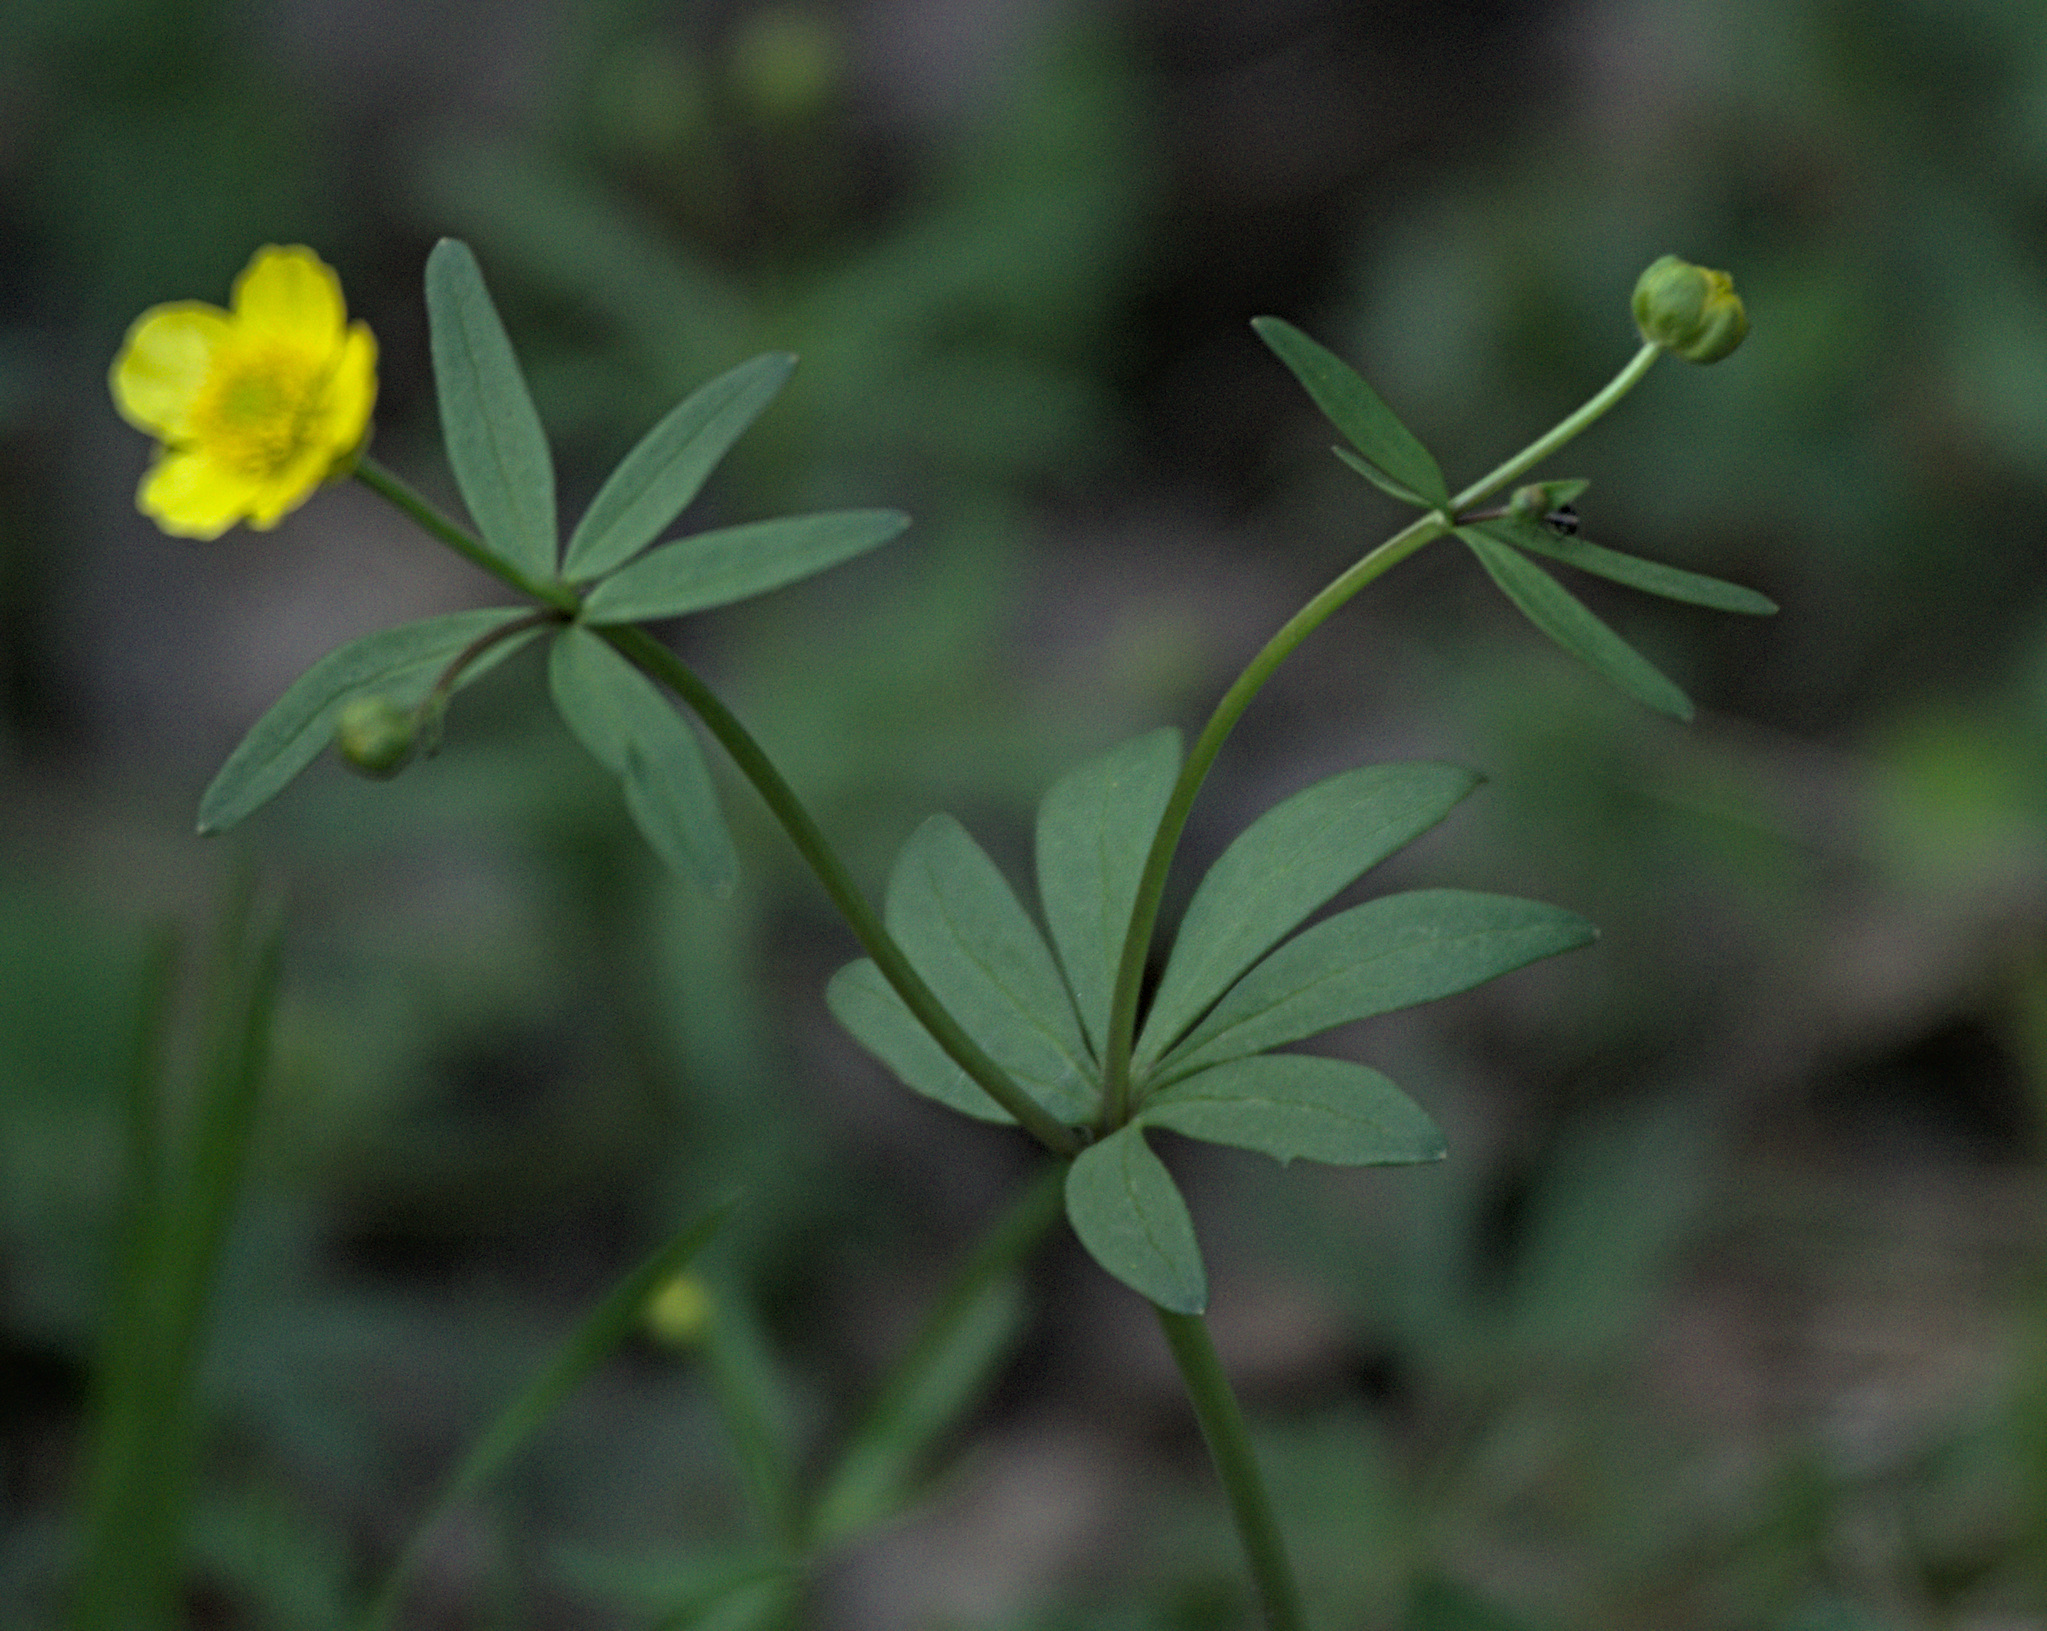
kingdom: Plantae
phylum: Tracheophyta
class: Magnoliopsida
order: Ranunculales
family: Ranunculaceae
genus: Ranunculus
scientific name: Ranunculus monophyllus
